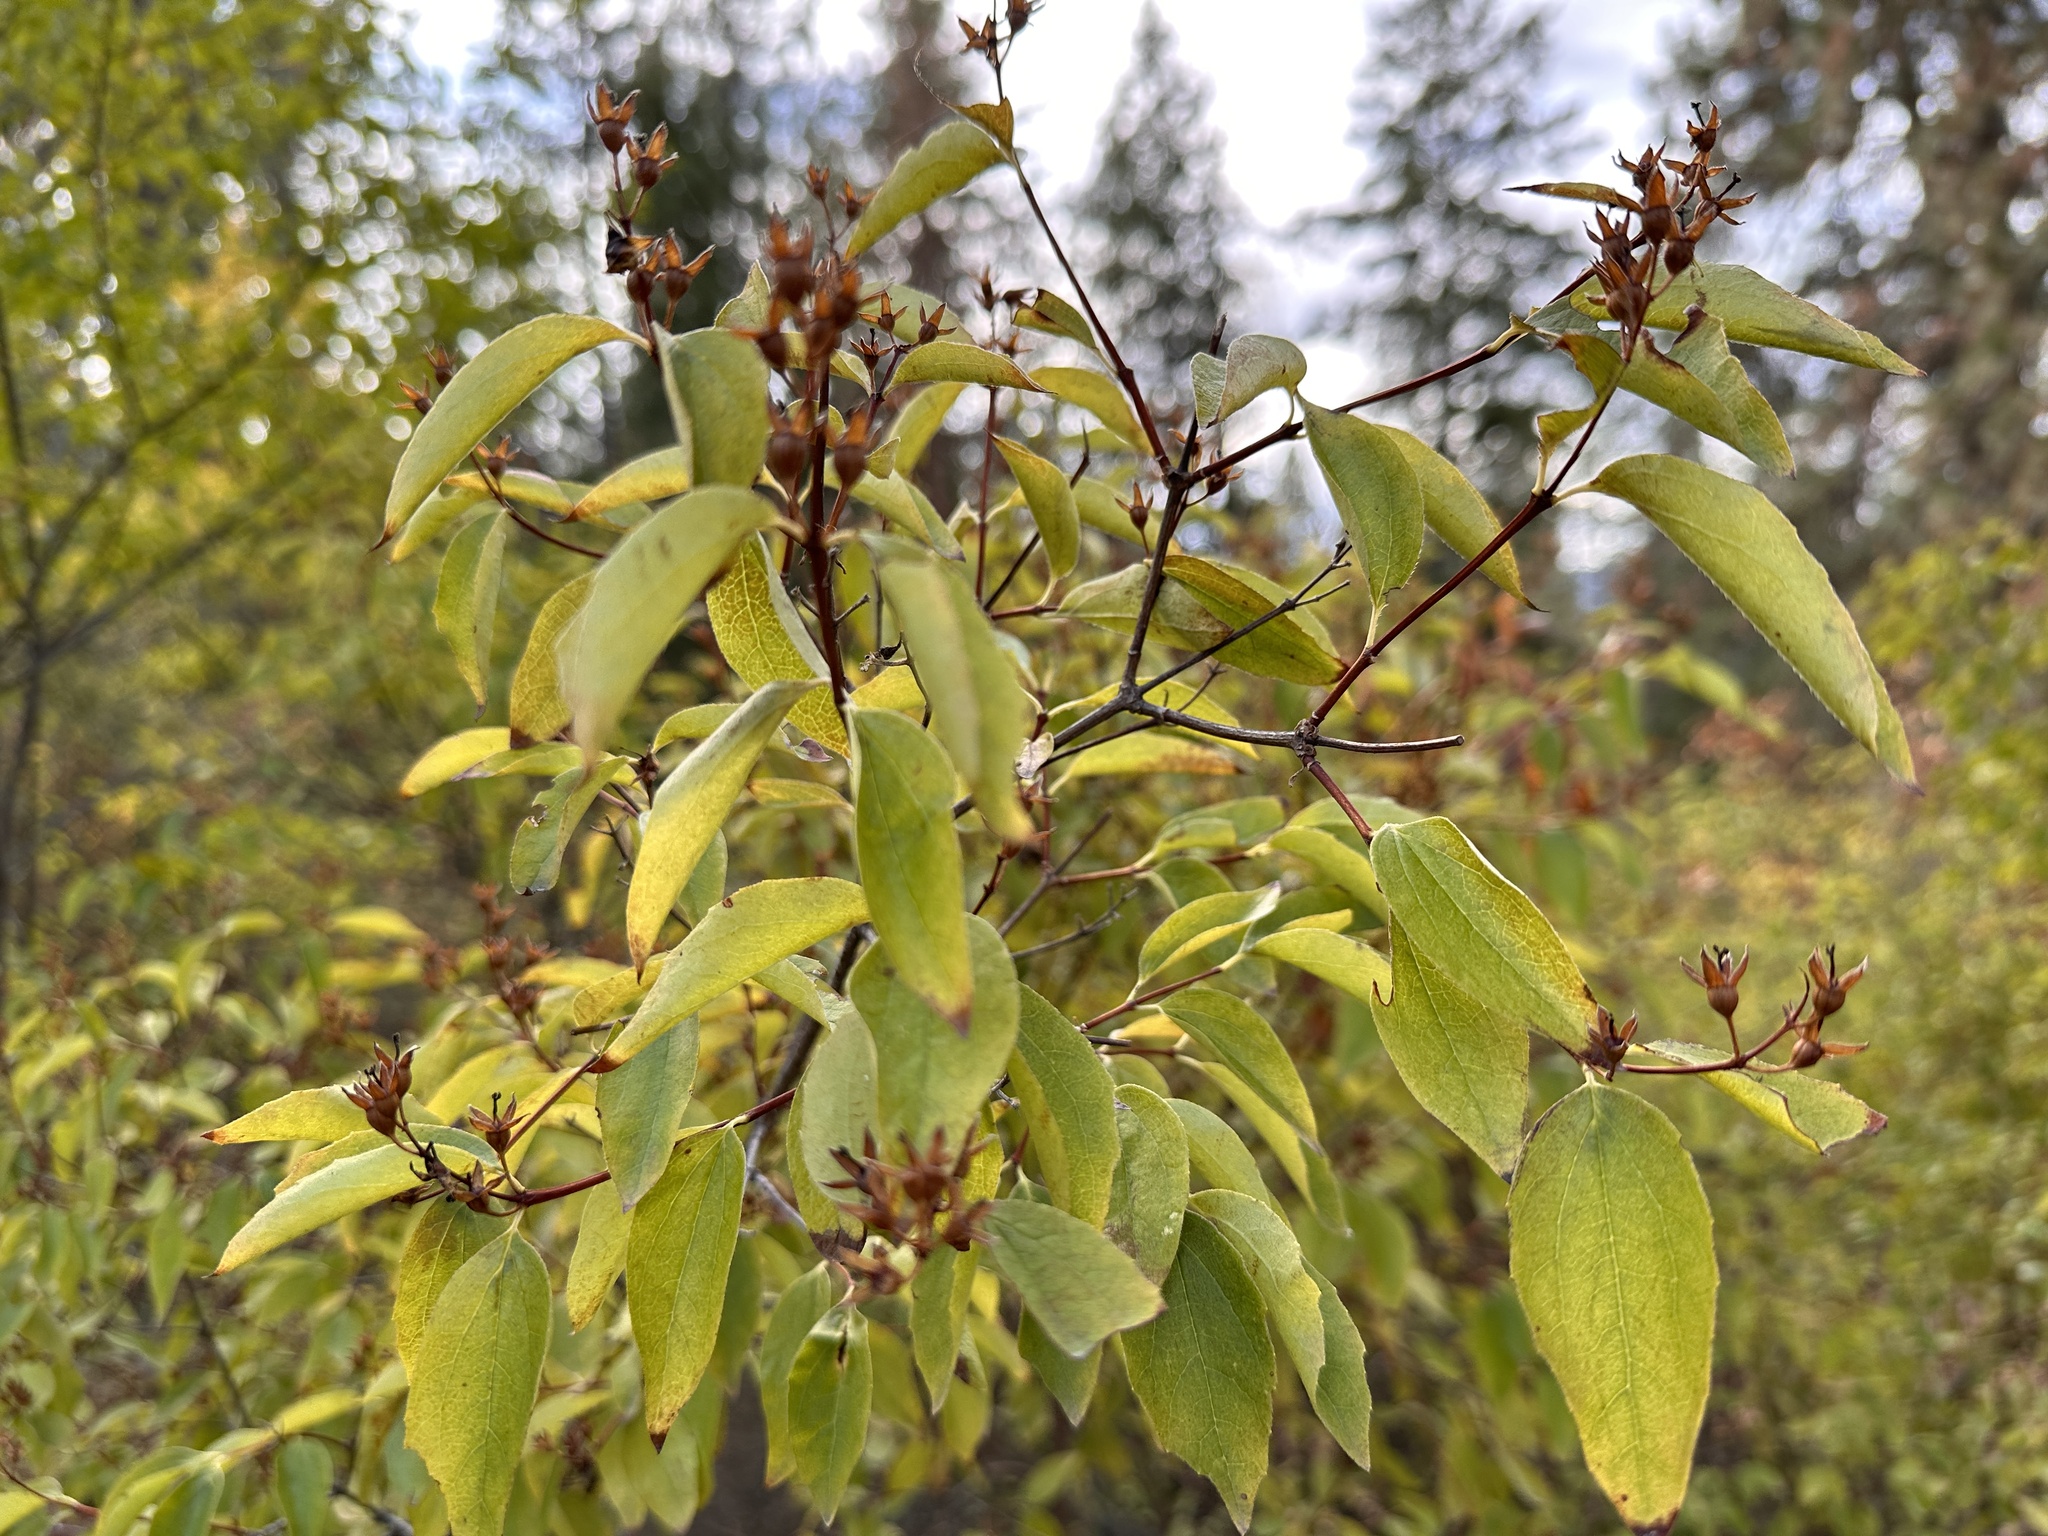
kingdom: Plantae
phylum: Tracheophyta
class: Magnoliopsida
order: Cornales
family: Hydrangeaceae
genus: Philadelphus
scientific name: Philadelphus lewisii
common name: Lewis's mock orange
